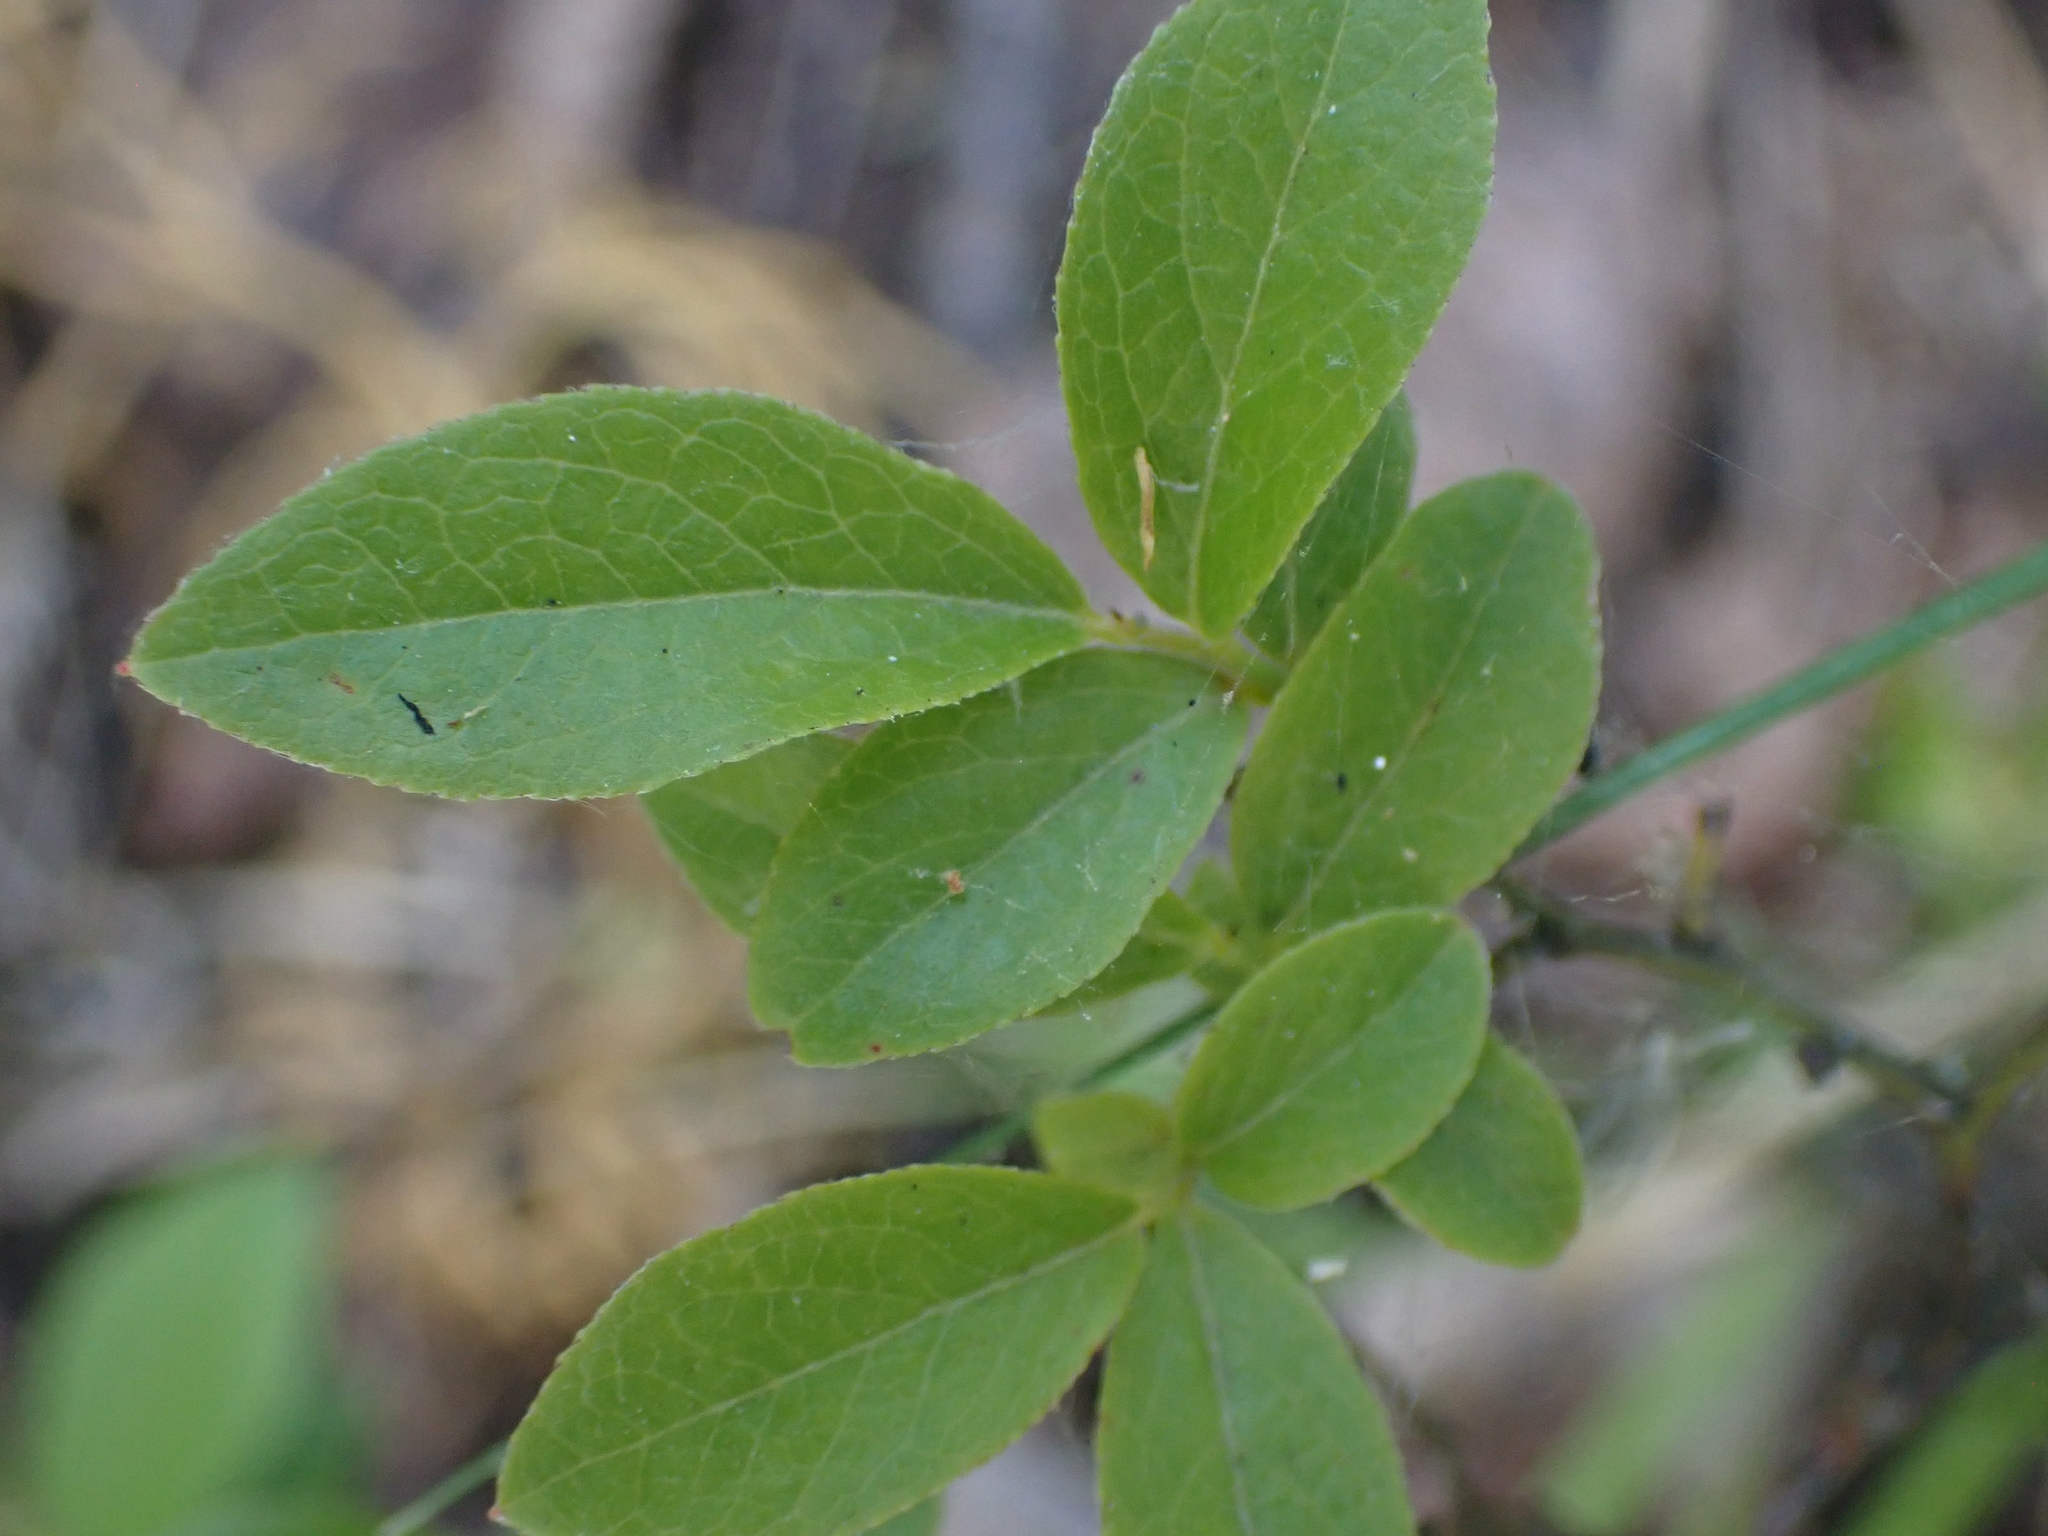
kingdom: Plantae
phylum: Tracheophyta
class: Magnoliopsida
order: Ericales
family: Ericaceae
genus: Vaccinium
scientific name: Vaccinium angustifolium
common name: Early lowbush blueberry
